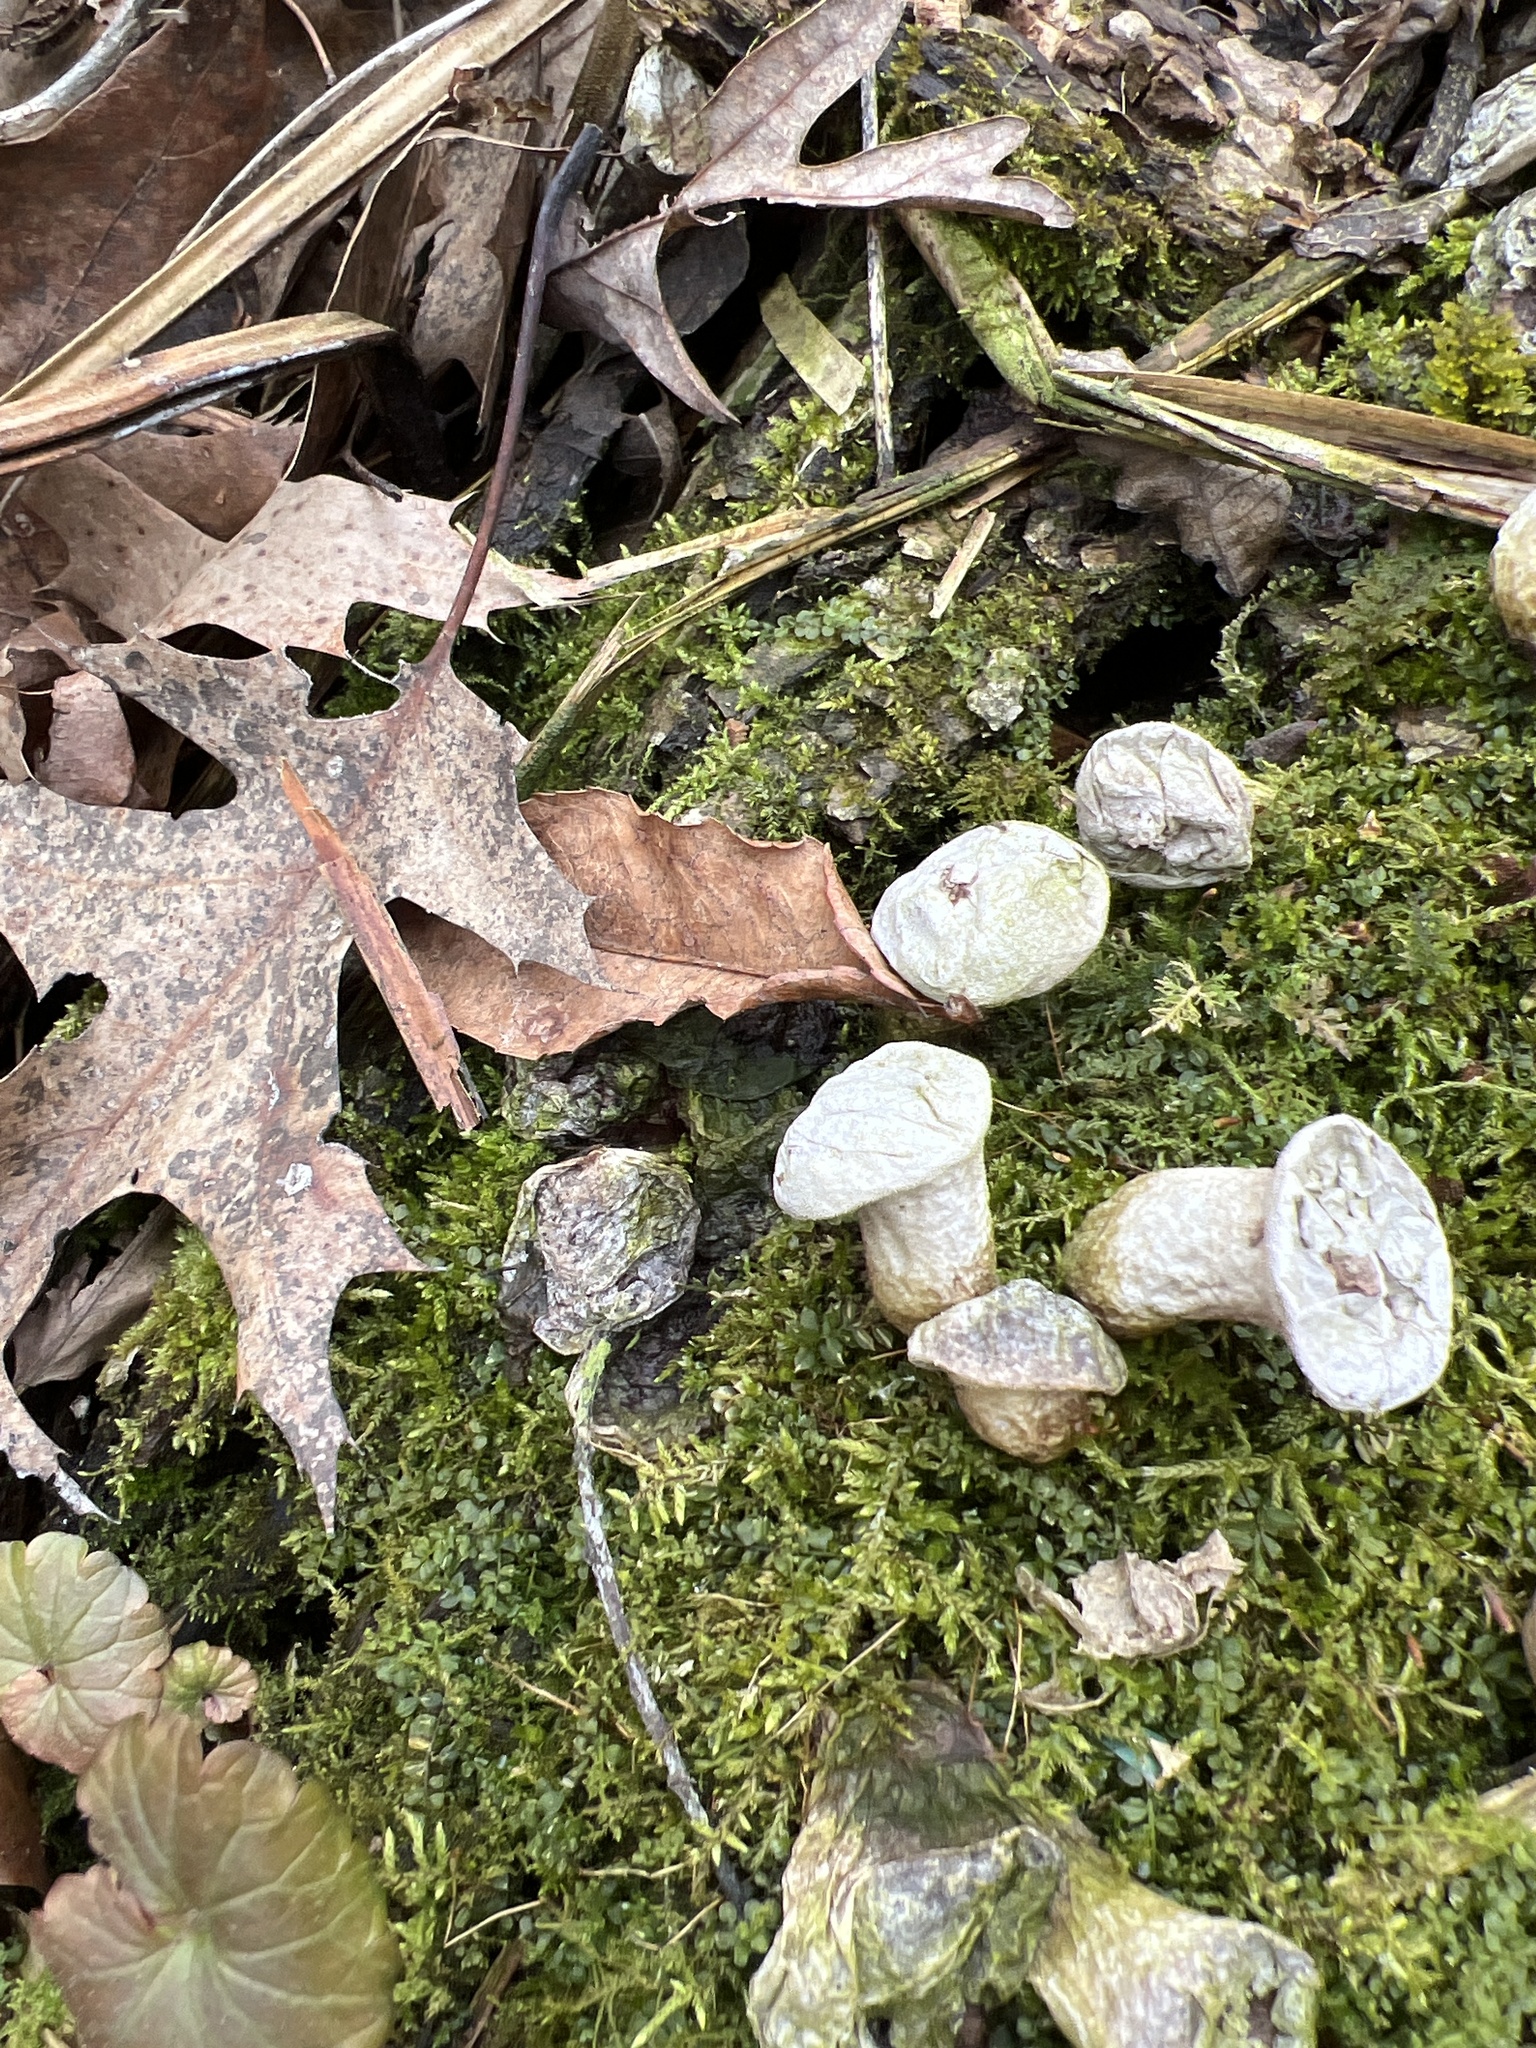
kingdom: Fungi
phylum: Basidiomycota
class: Agaricomycetes
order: Agaricales
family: Lycoperdaceae
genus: Apioperdon
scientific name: Apioperdon pyriforme
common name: Pear-shaped puffball
